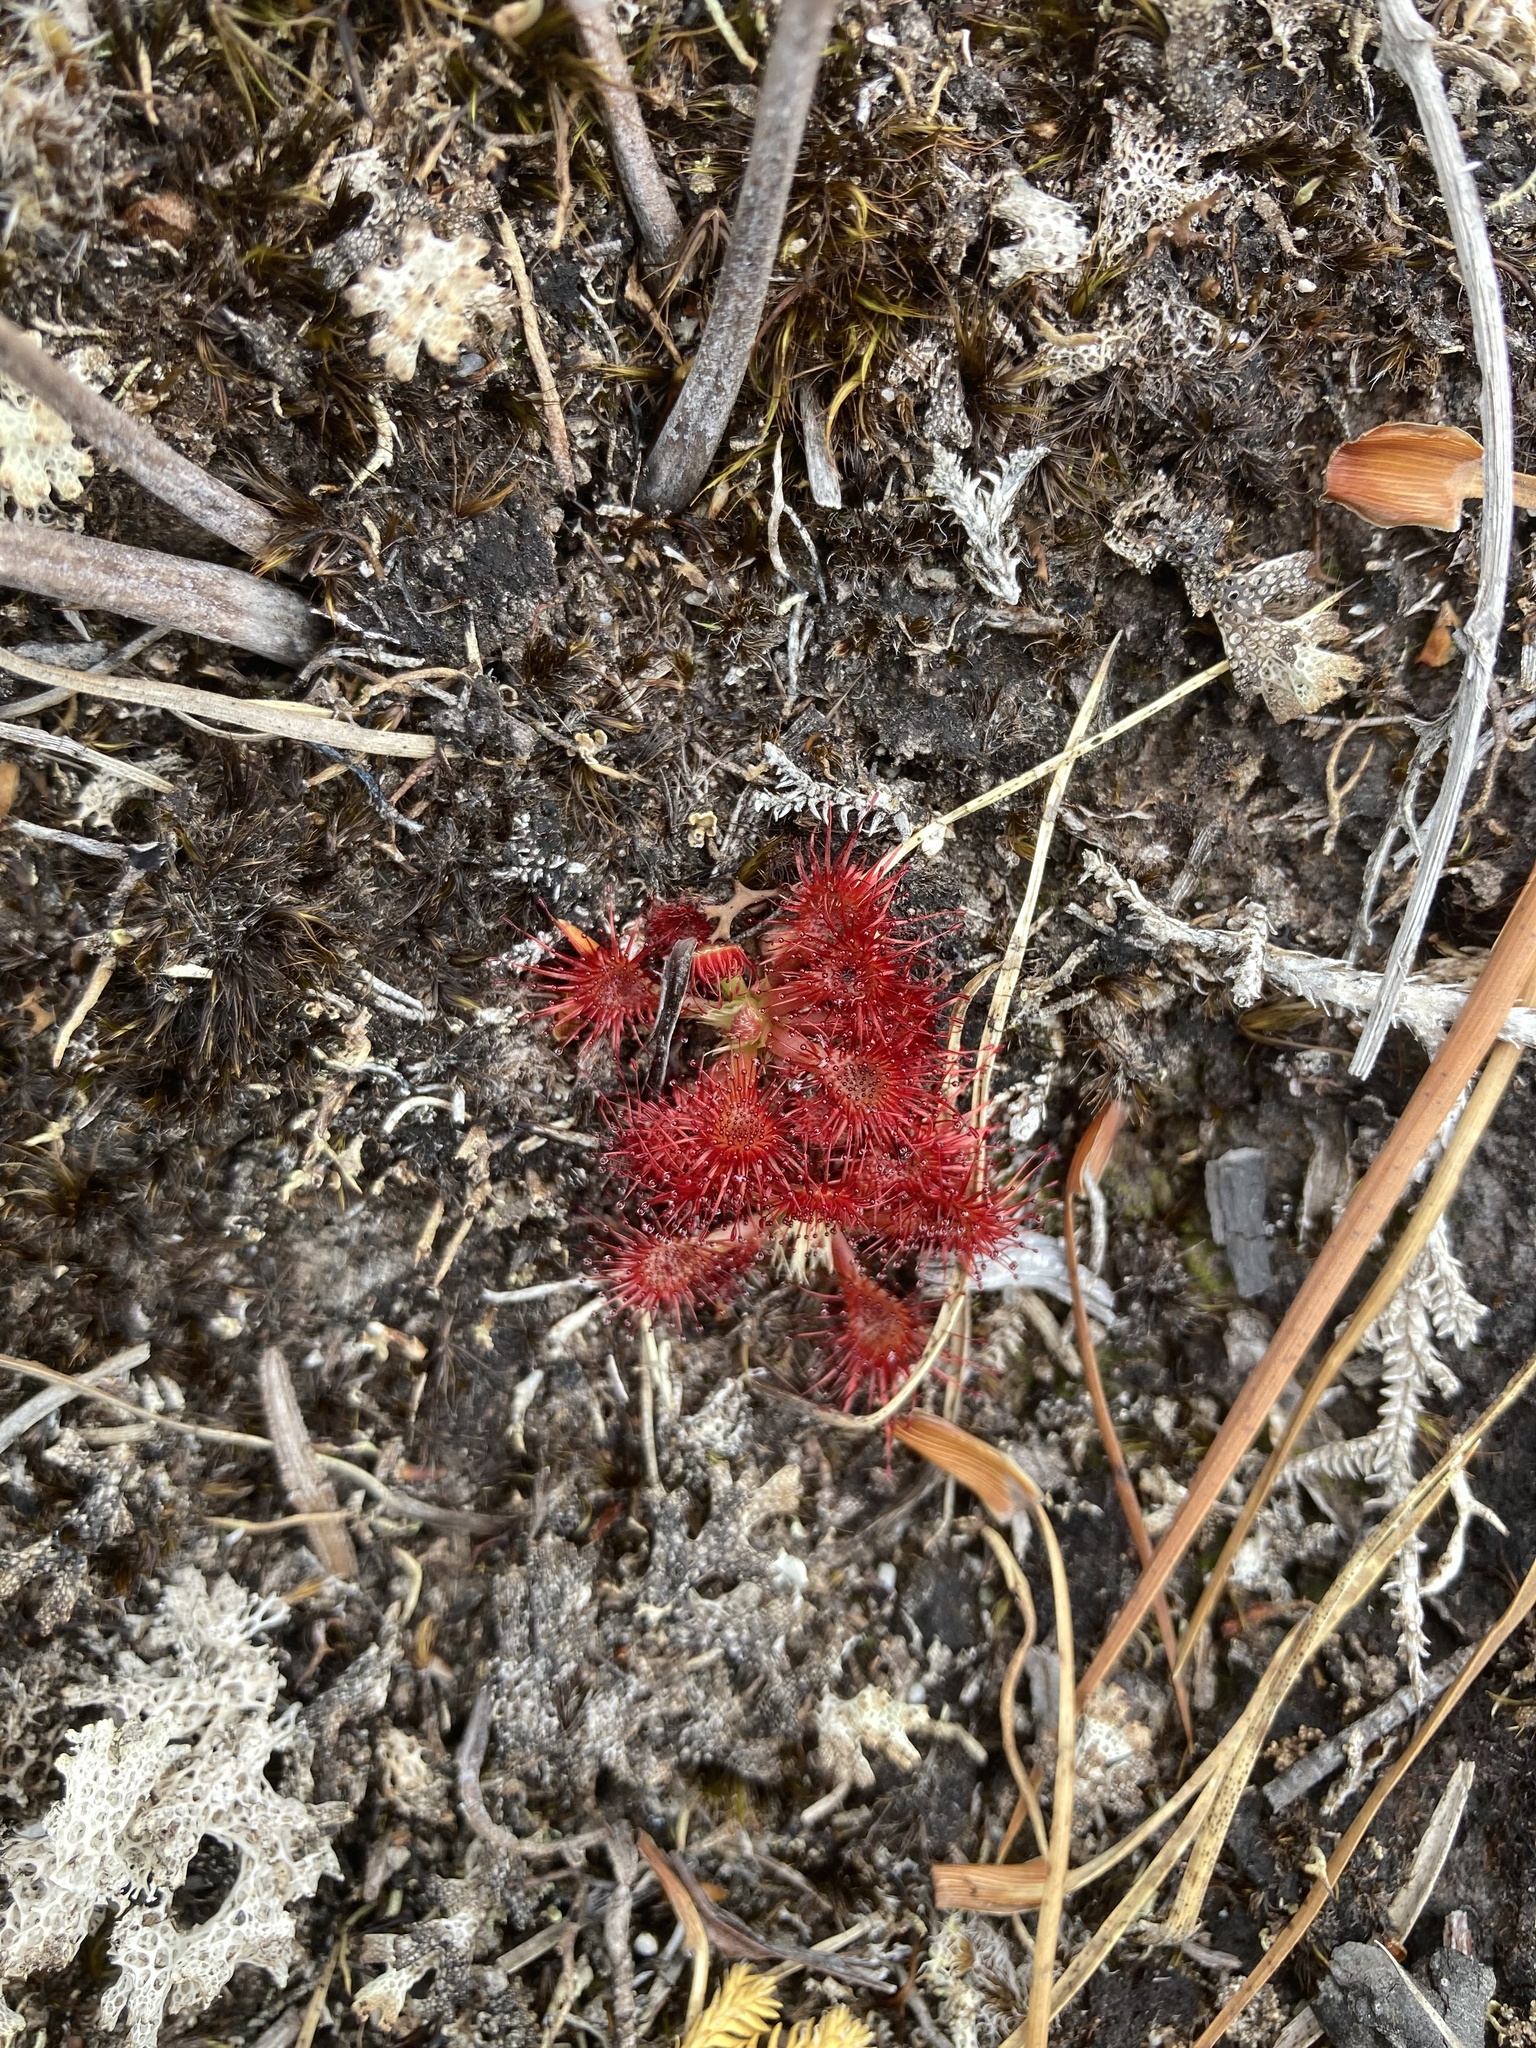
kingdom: Plantae
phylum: Tracheophyta
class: Magnoliopsida
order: Caryophyllales
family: Droseraceae
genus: Drosera
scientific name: Drosera spatulata
